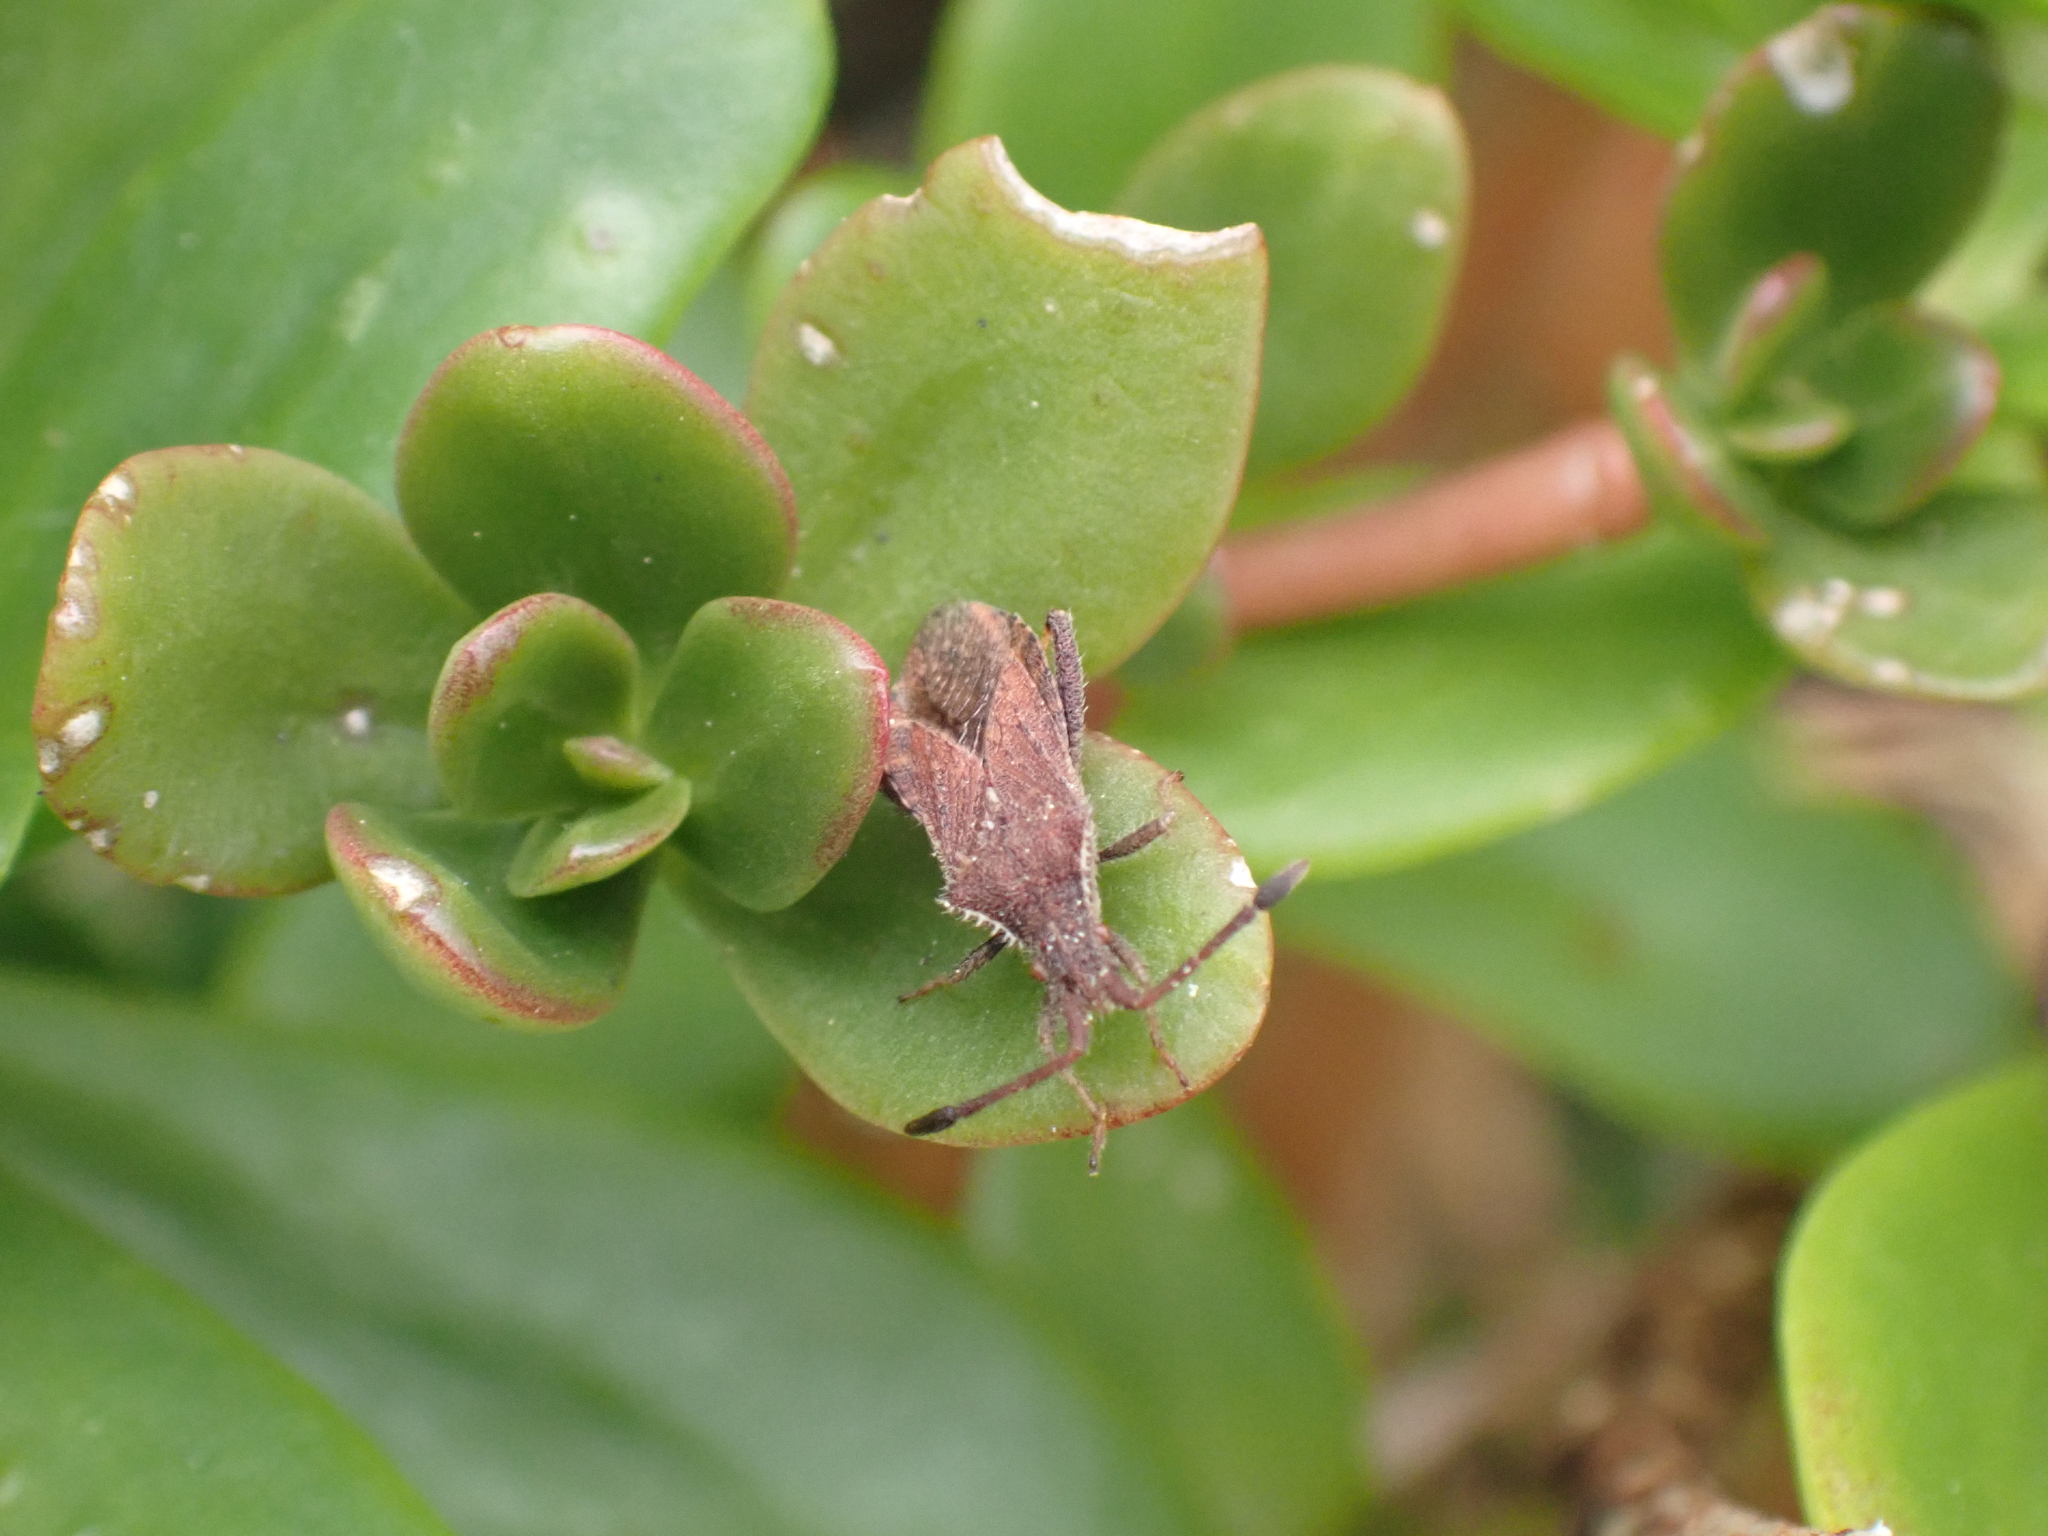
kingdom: Animalia
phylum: Arthropoda
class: Insecta
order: Hemiptera
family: Coreidae
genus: Coriomeris
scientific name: Coriomeris denticulatus
